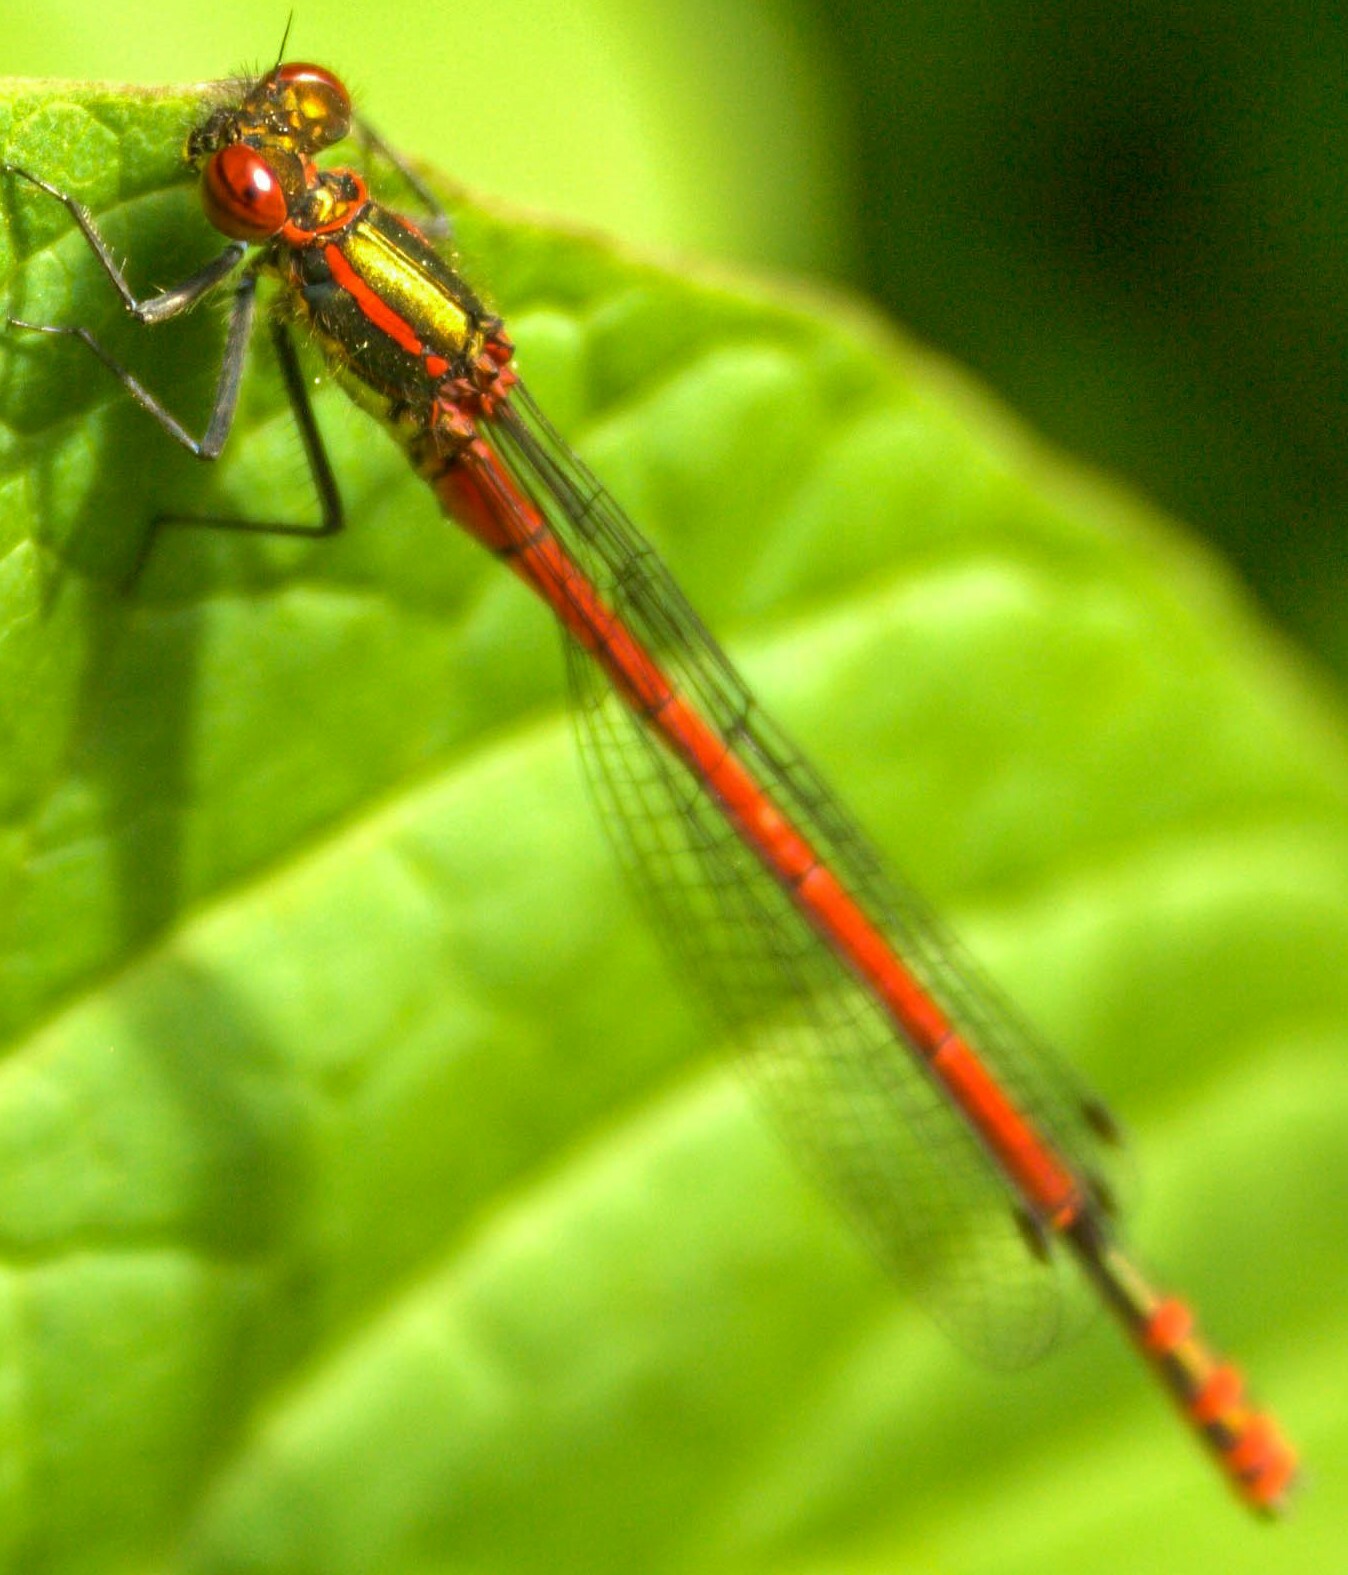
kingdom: Animalia
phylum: Arthropoda
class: Insecta
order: Odonata
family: Coenagrionidae
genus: Pyrrhosoma
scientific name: Pyrrhosoma nymphula
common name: Large red damsel
